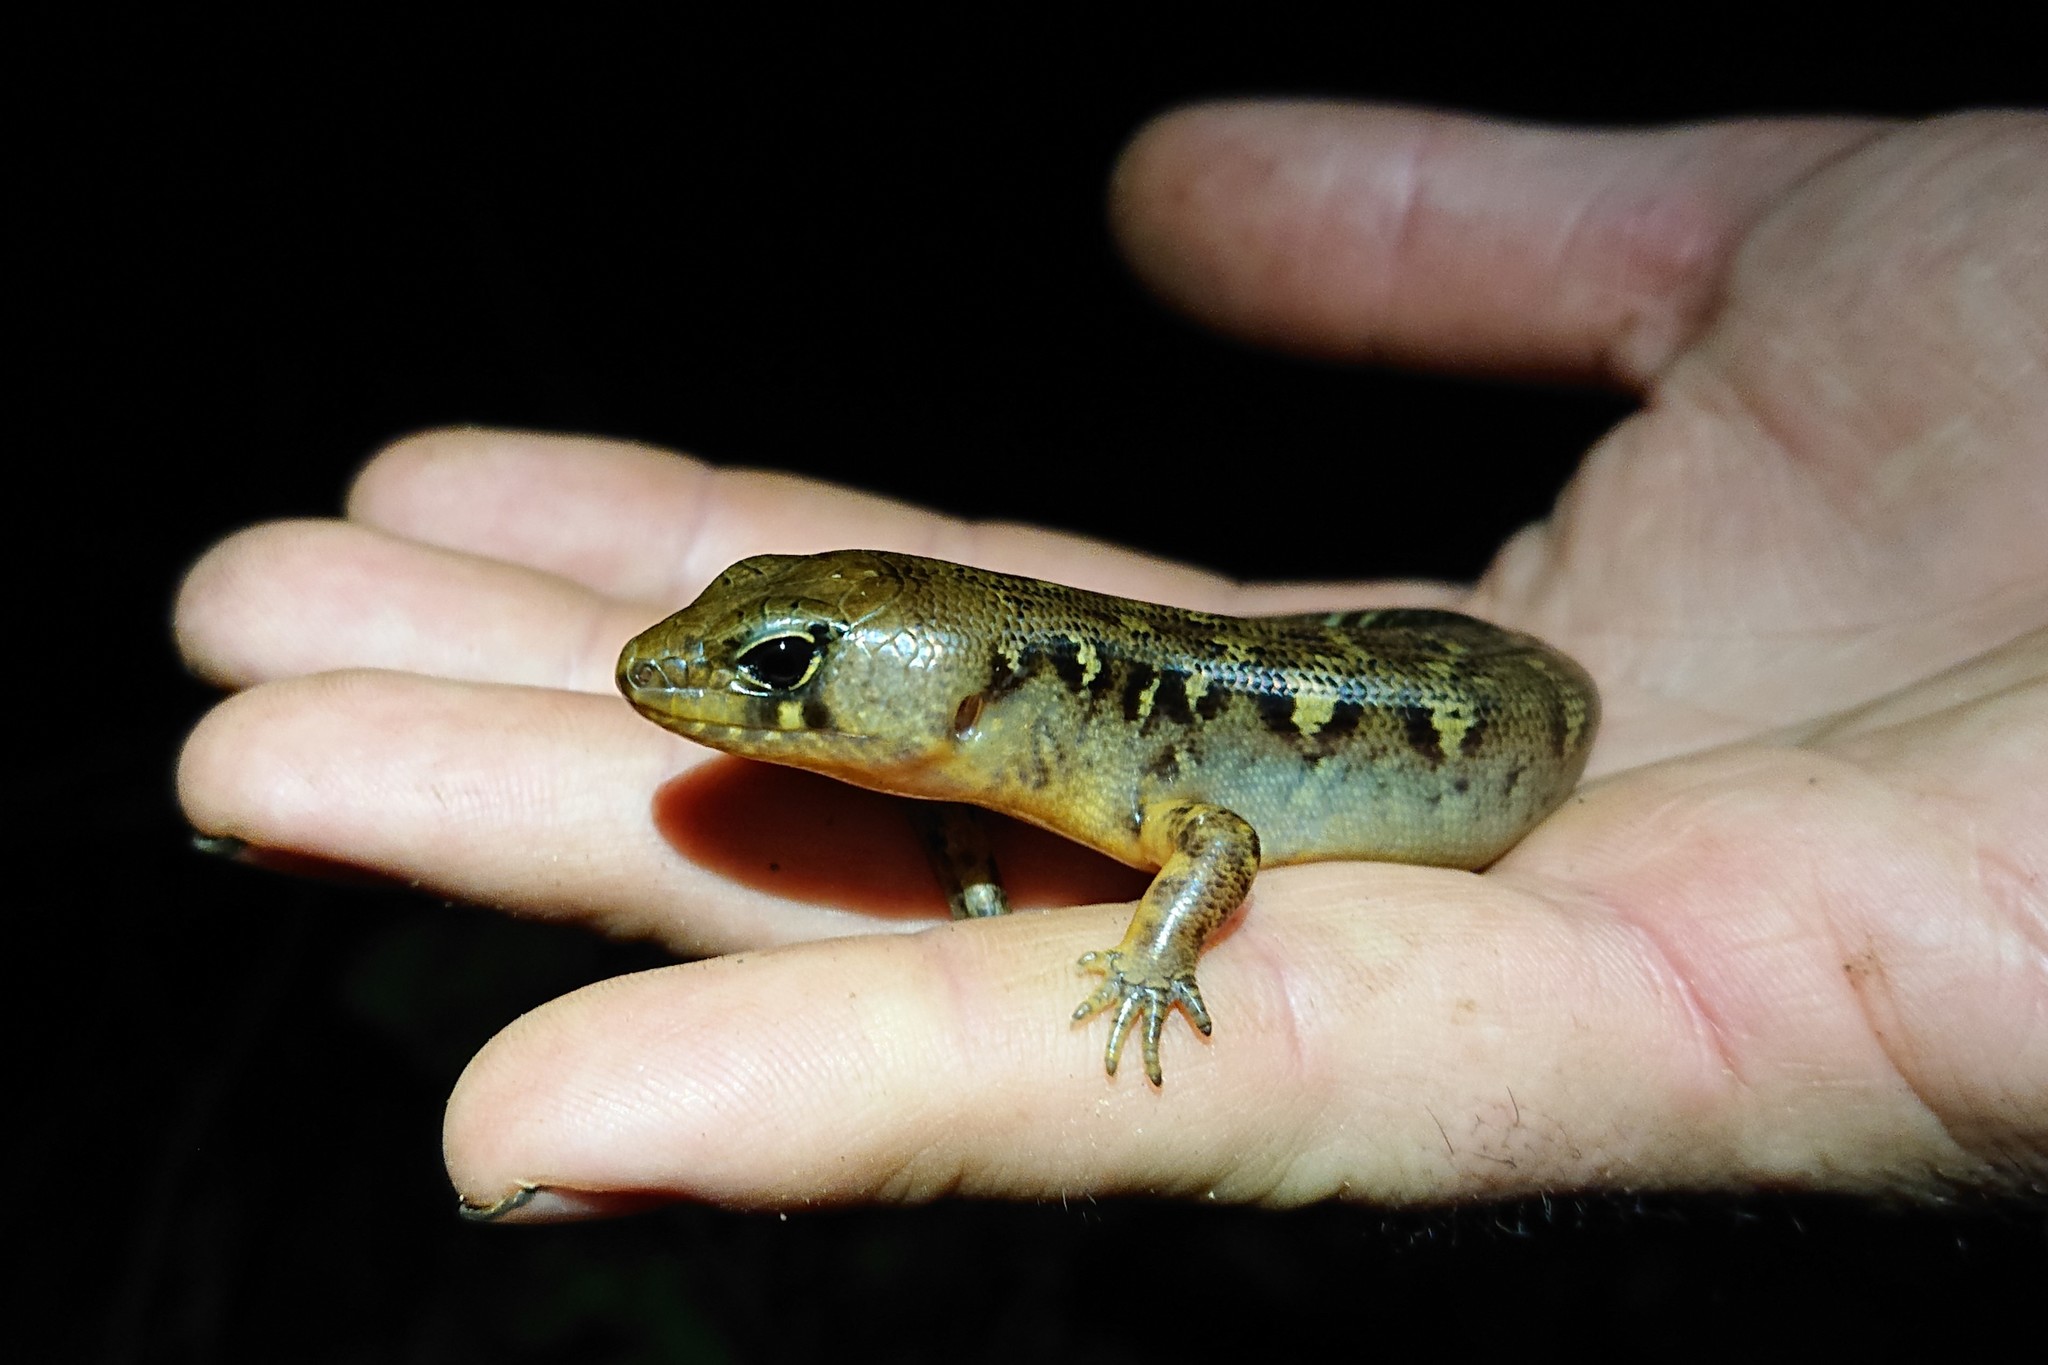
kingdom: Animalia
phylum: Chordata
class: Squamata
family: Scincidae
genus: Oligosoma
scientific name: Oligosoma alani
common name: Alan's skink
